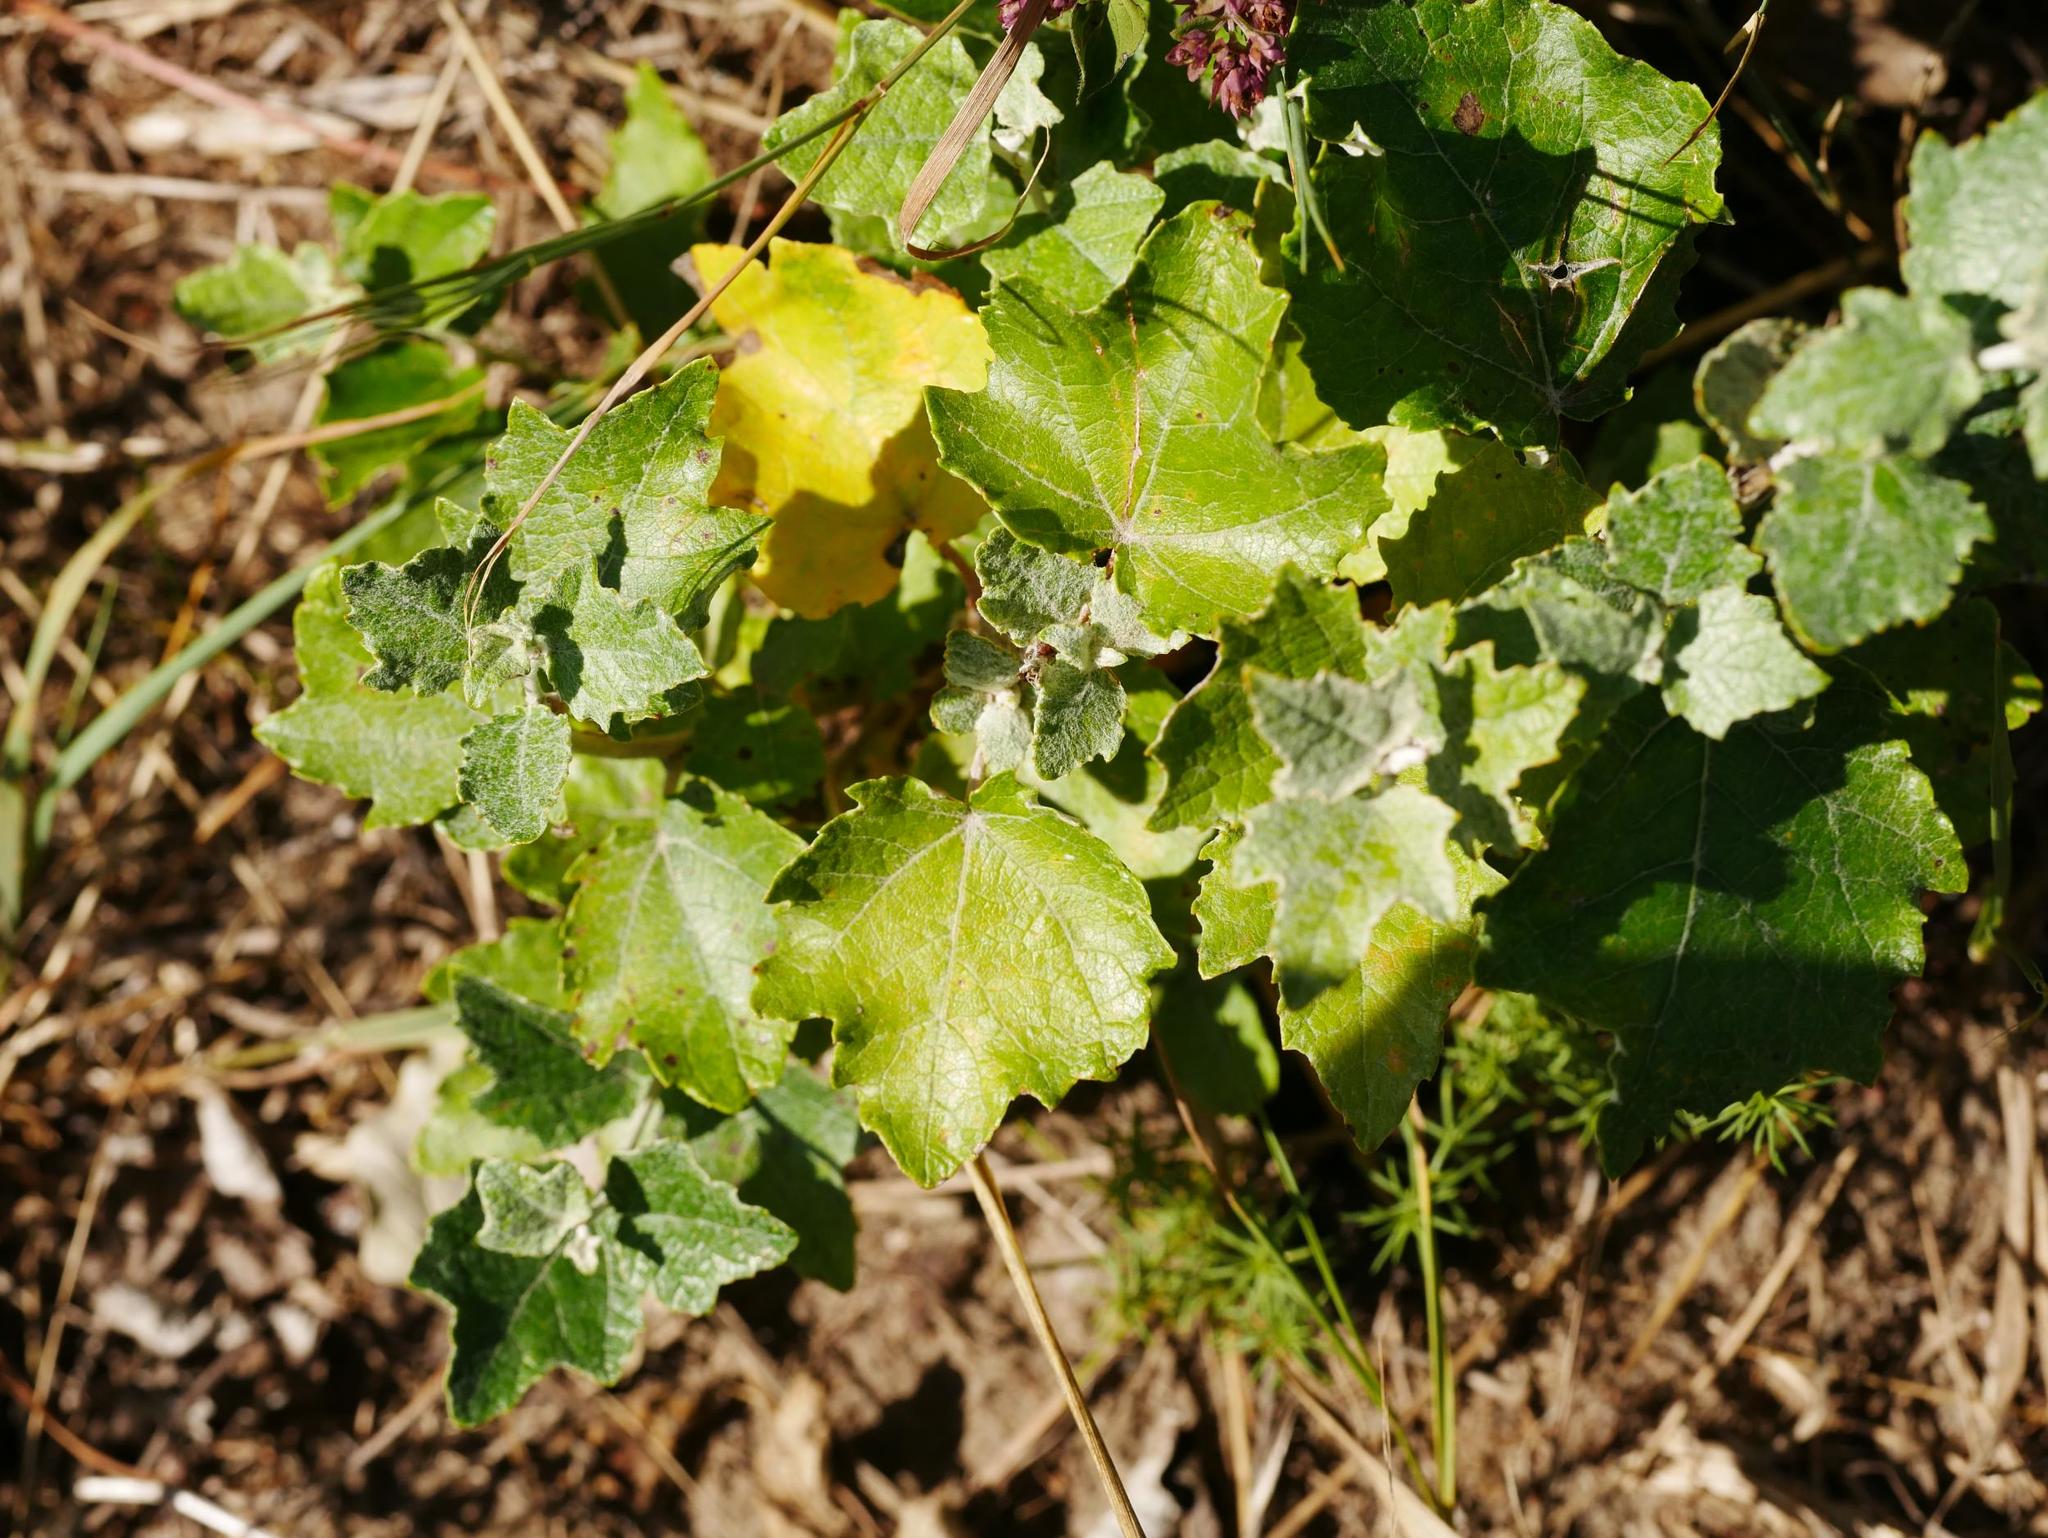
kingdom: Plantae
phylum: Tracheophyta
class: Magnoliopsida
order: Malpighiales
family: Salicaceae
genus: Populus
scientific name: Populus alba
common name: White poplar
